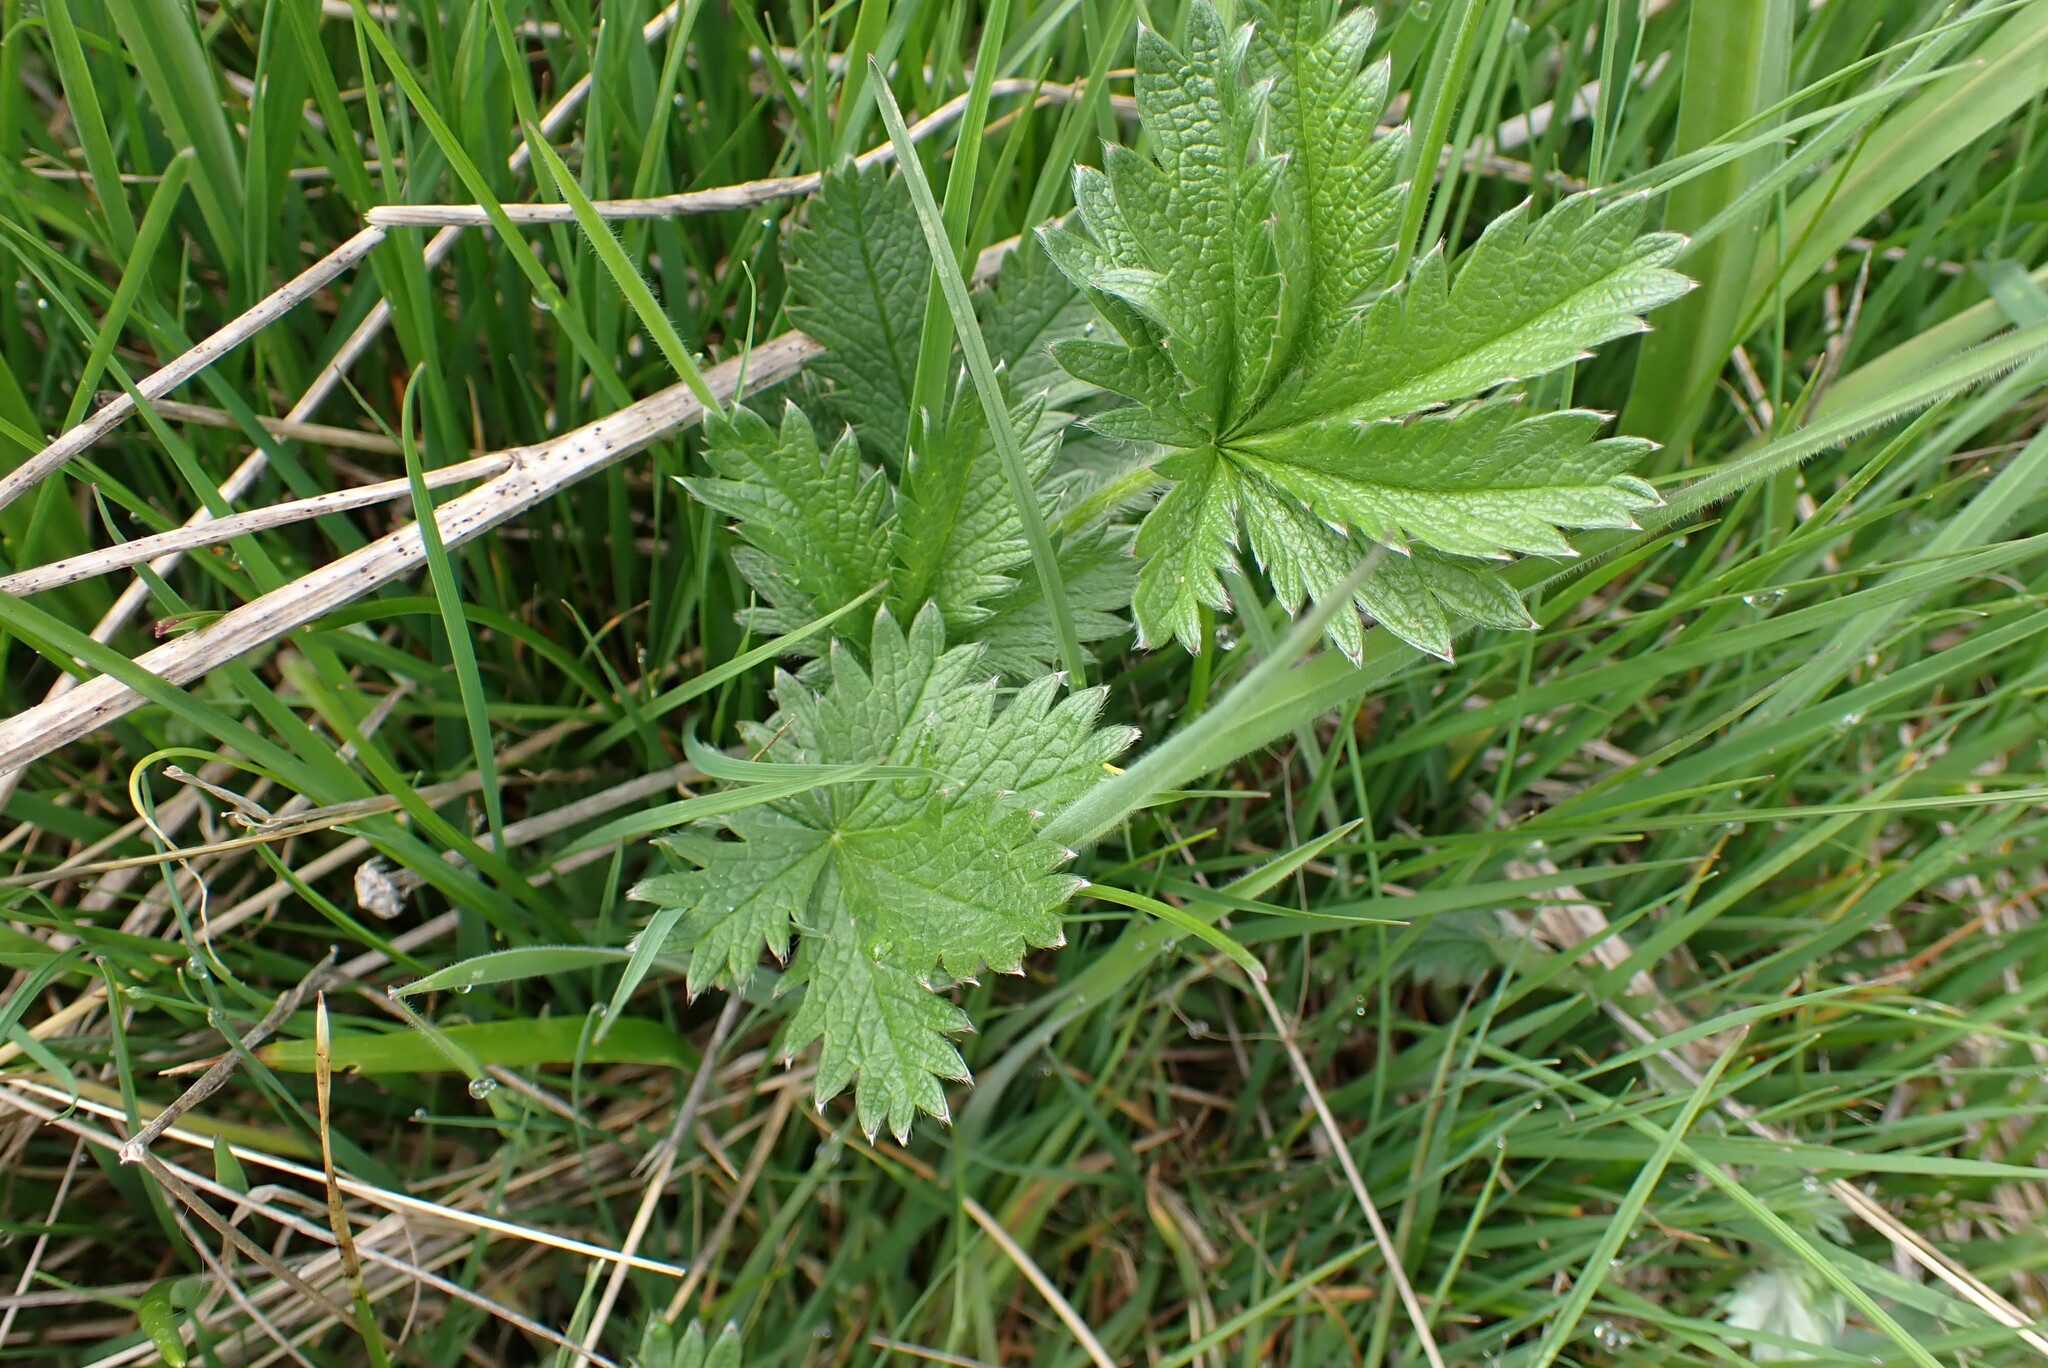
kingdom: Plantae
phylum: Tracheophyta
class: Magnoliopsida
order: Rosales
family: Rosaceae
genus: Potentilla
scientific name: Potentilla gracilis
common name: Graceful cinquefoil
